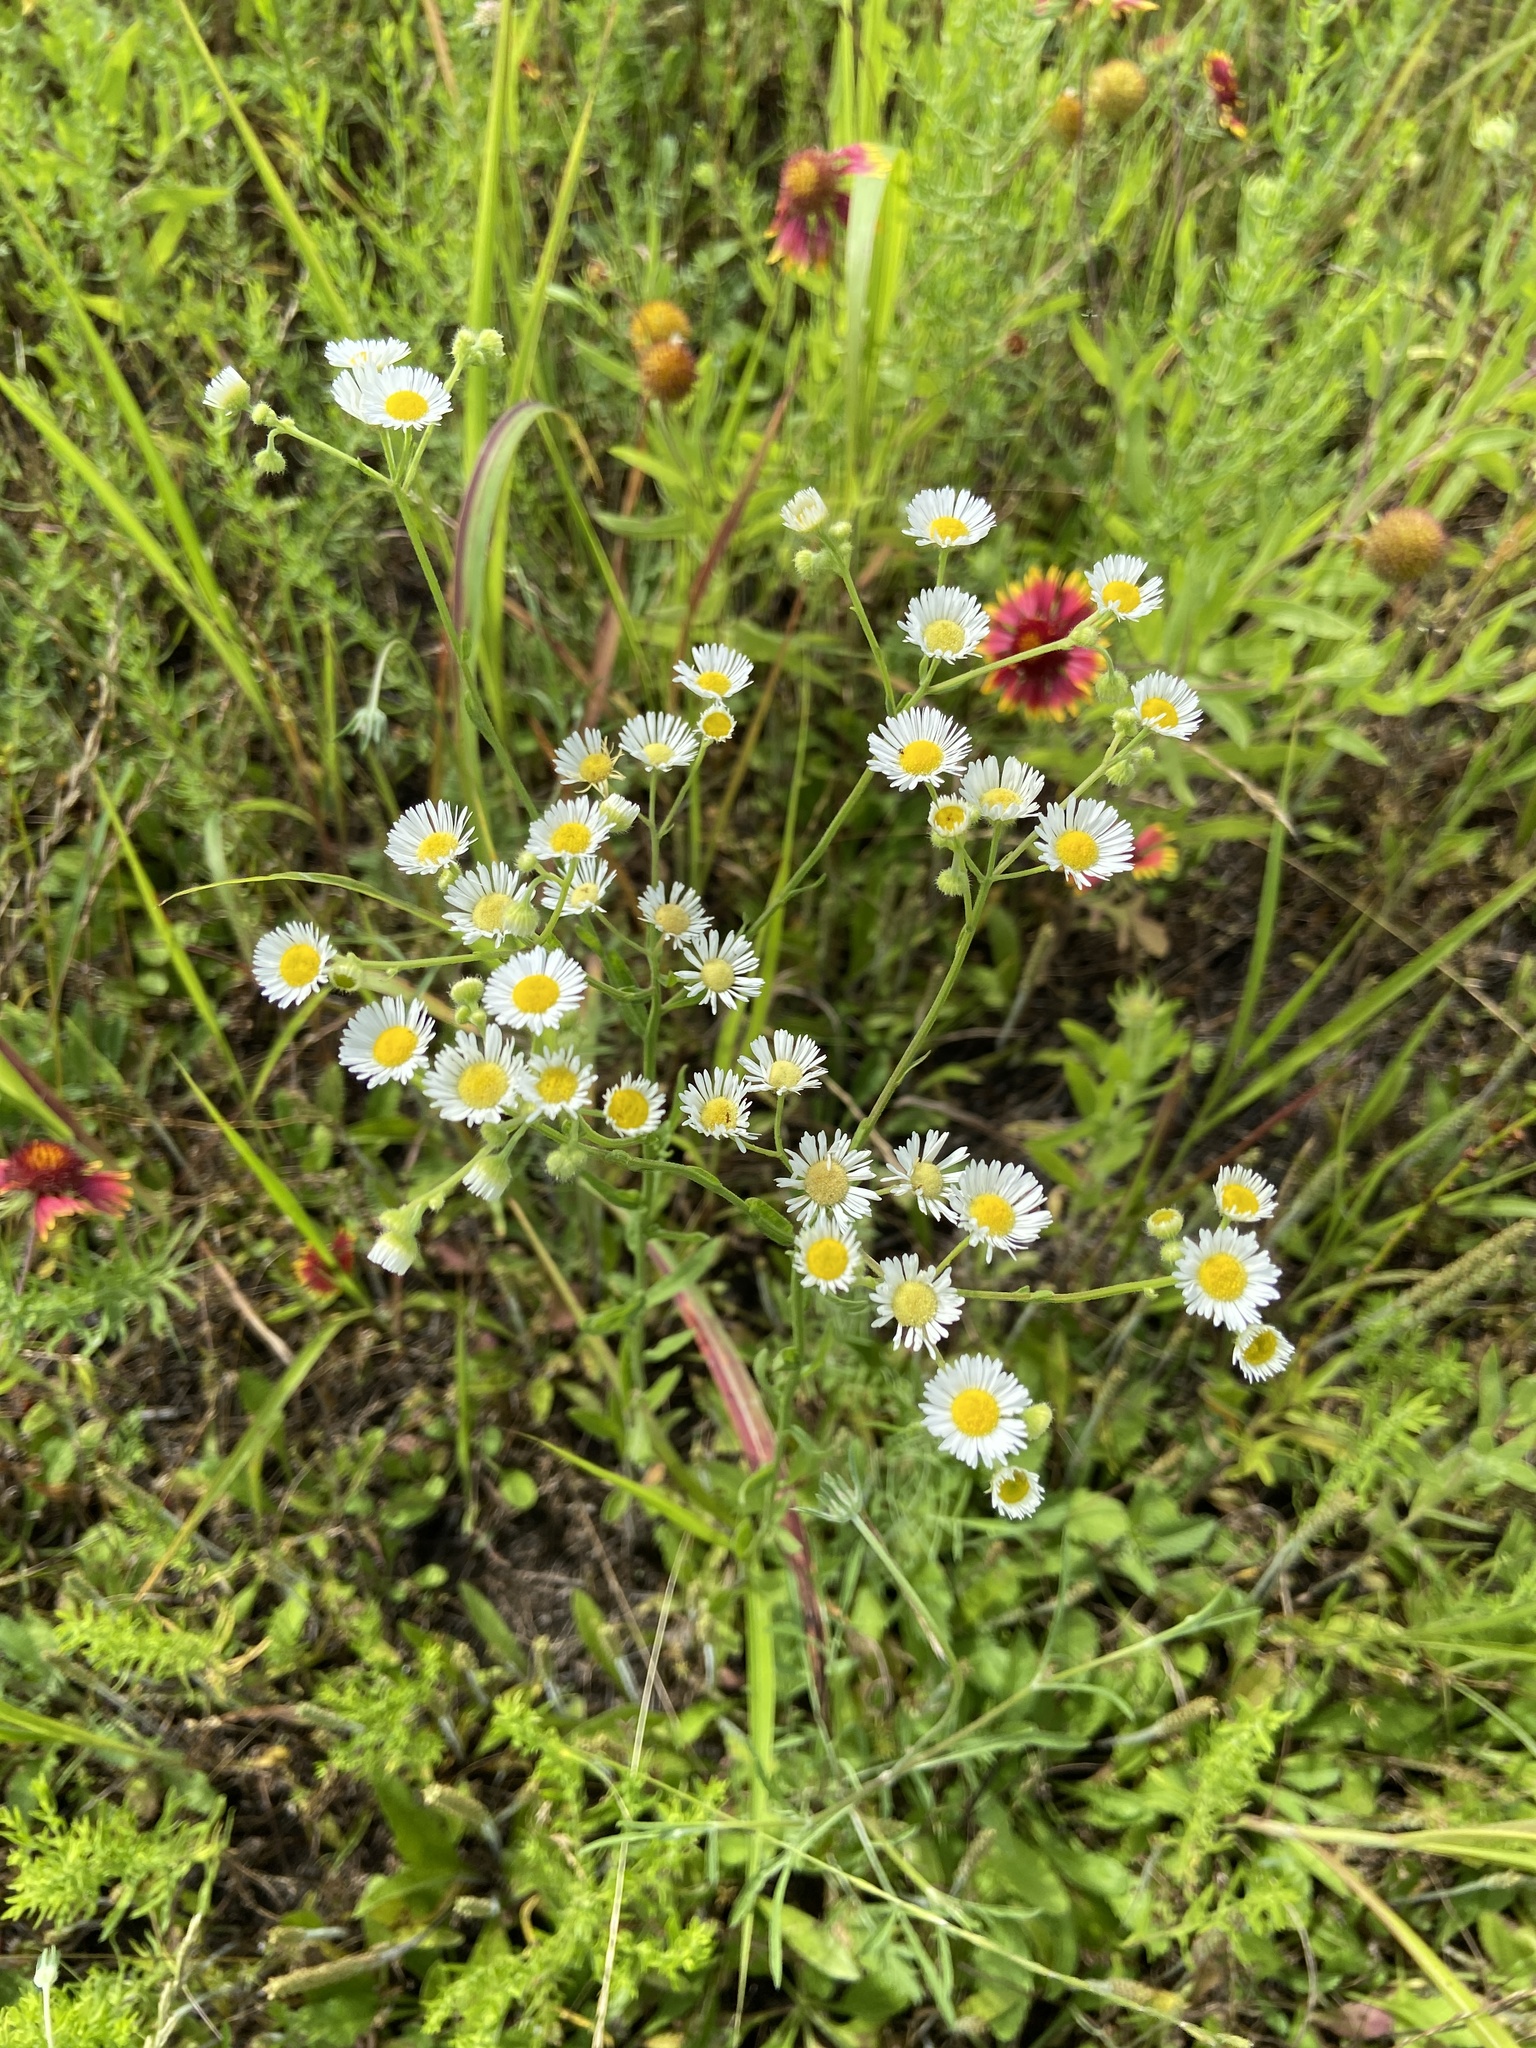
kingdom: Plantae
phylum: Tracheophyta
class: Magnoliopsida
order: Asterales
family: Asteraceae
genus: Erigeron
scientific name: Erigeron strigosus
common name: Common eastern fleabane
